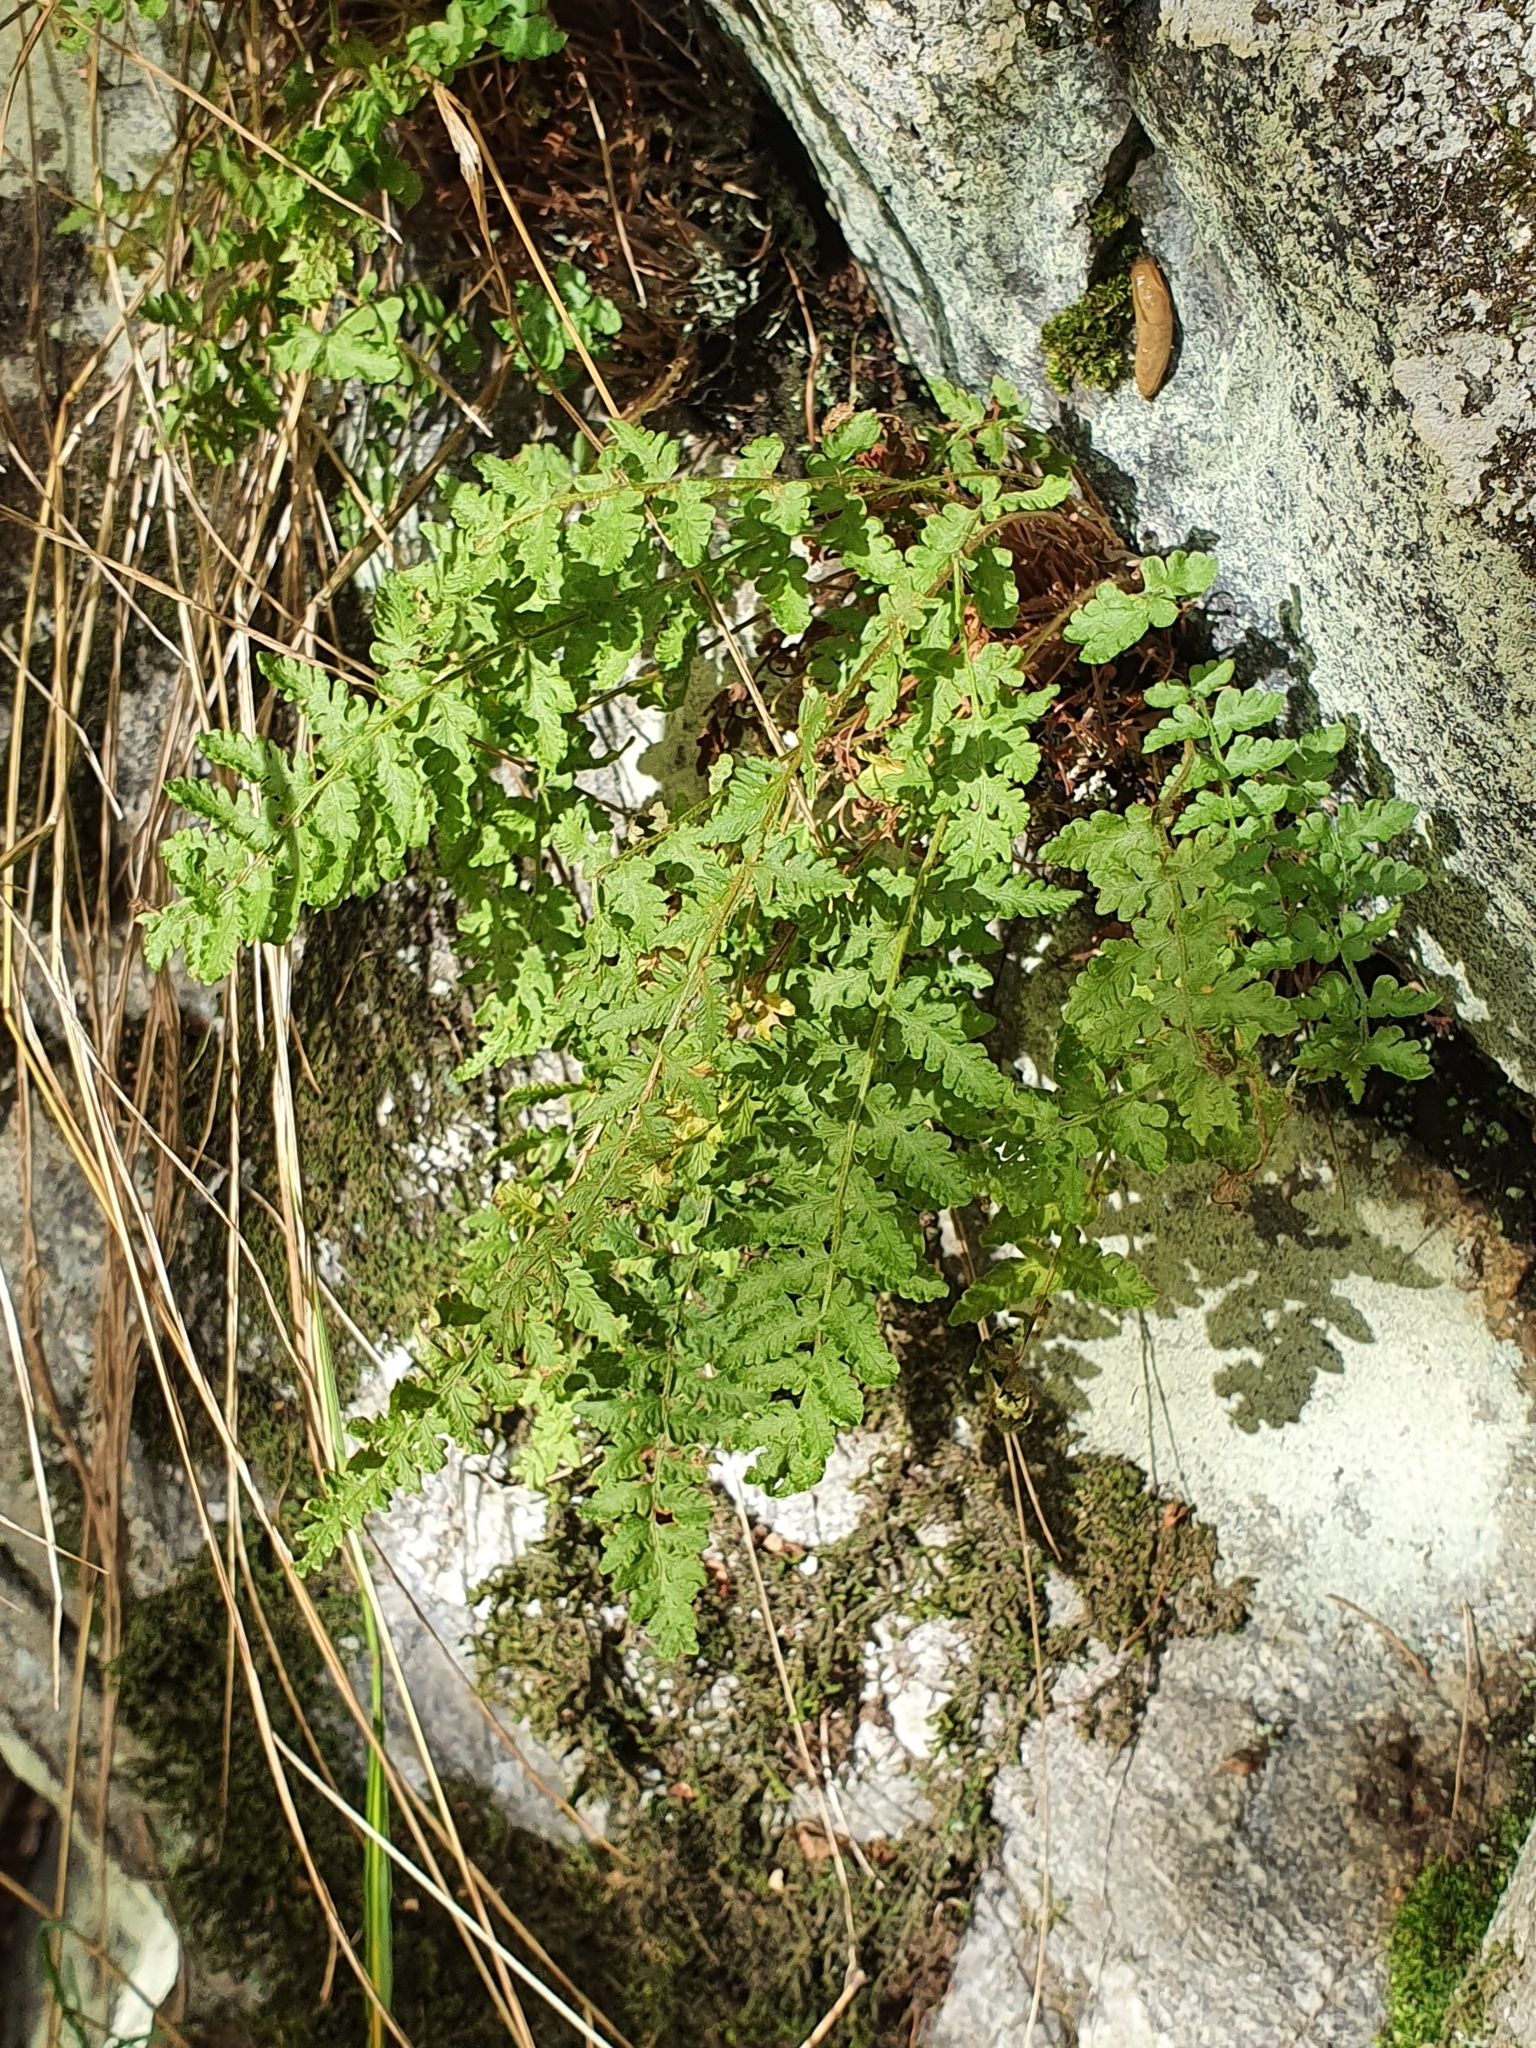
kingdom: Plantae
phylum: Tracheophyta
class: Polypodiopsida
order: Polypodiales
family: Woodsiaceae
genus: Woodsia
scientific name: Woodsia ilvensis
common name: Fragrant woodsia
